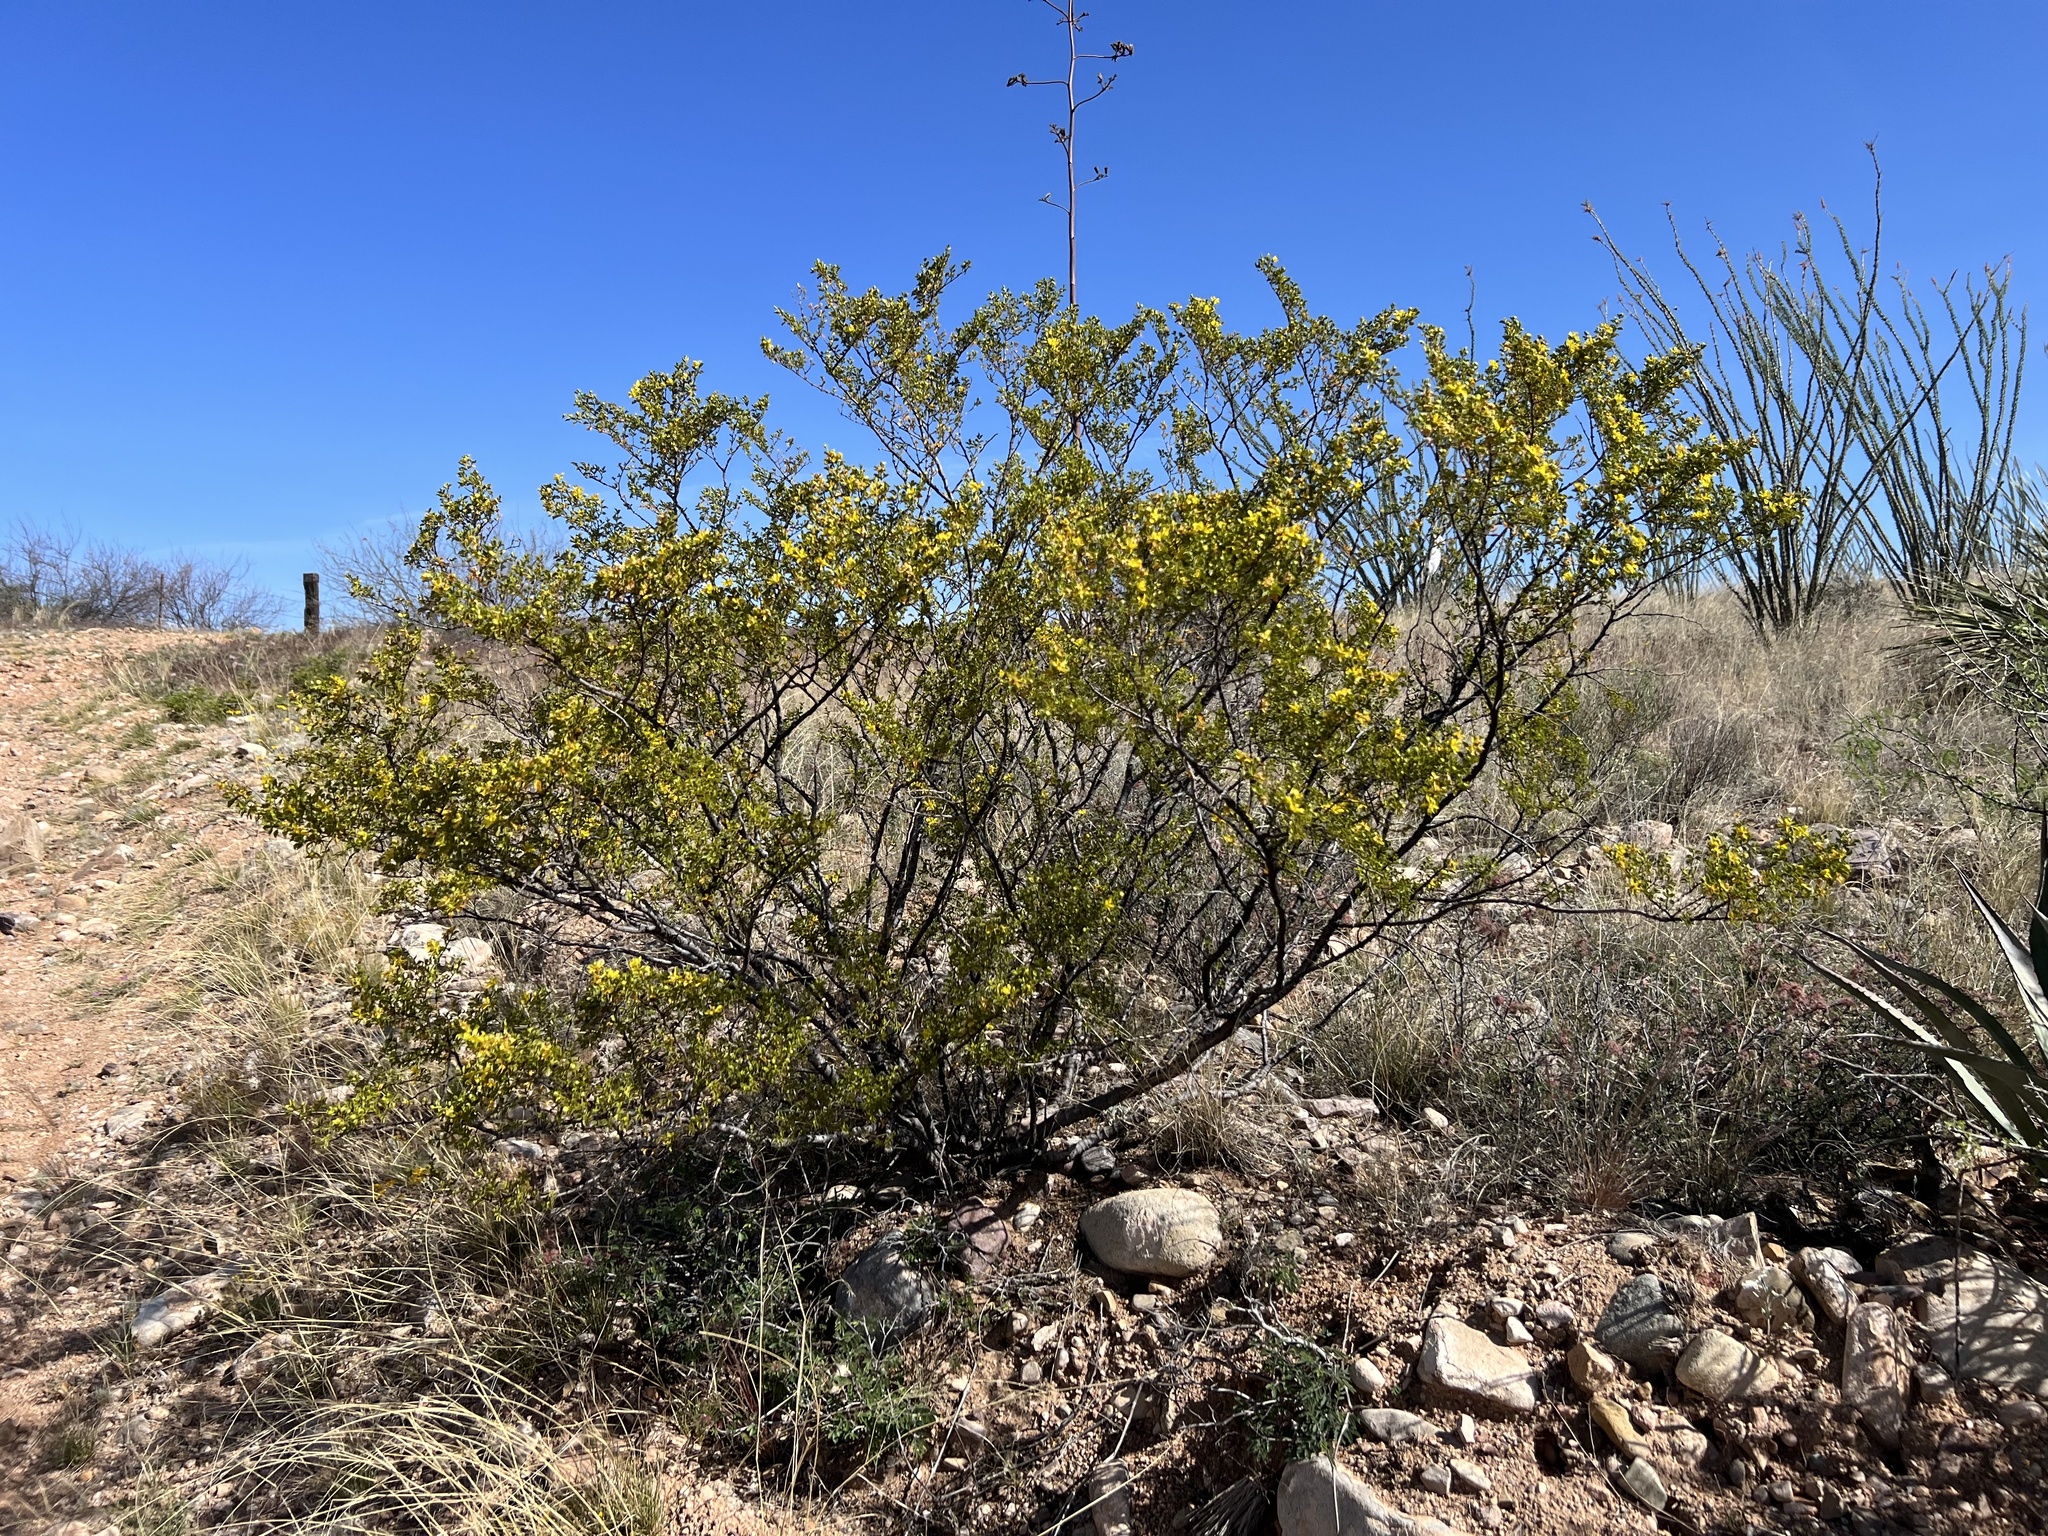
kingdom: Plantae
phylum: Tracheophyta
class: Magnoliopsida
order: Zygophyllales
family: Zygophyllaceae
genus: Larrea
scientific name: Larrea tridentata
